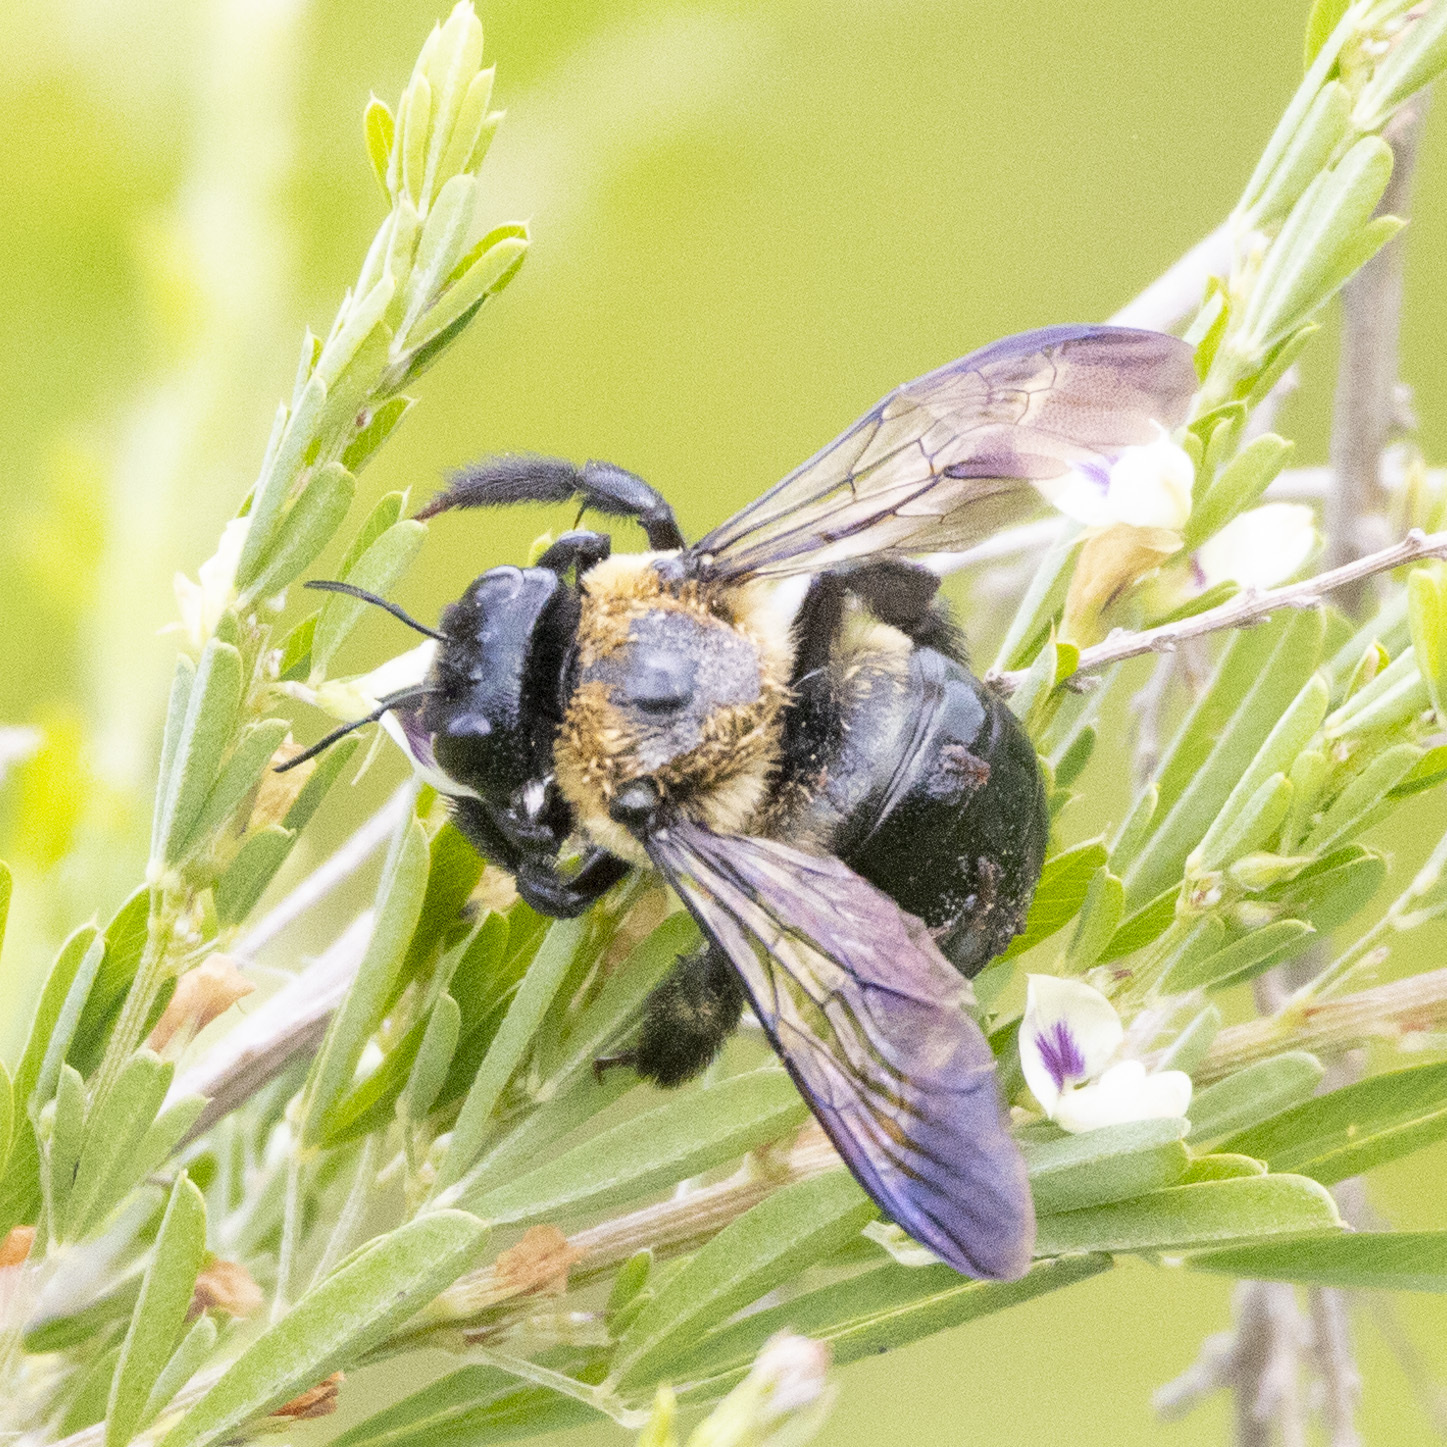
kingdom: Animalia
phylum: Arthropoda
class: Insecta
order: Hymenoptera
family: Apidae
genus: Xylocopa
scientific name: Xylocopa virginica
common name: Carpenter bee
